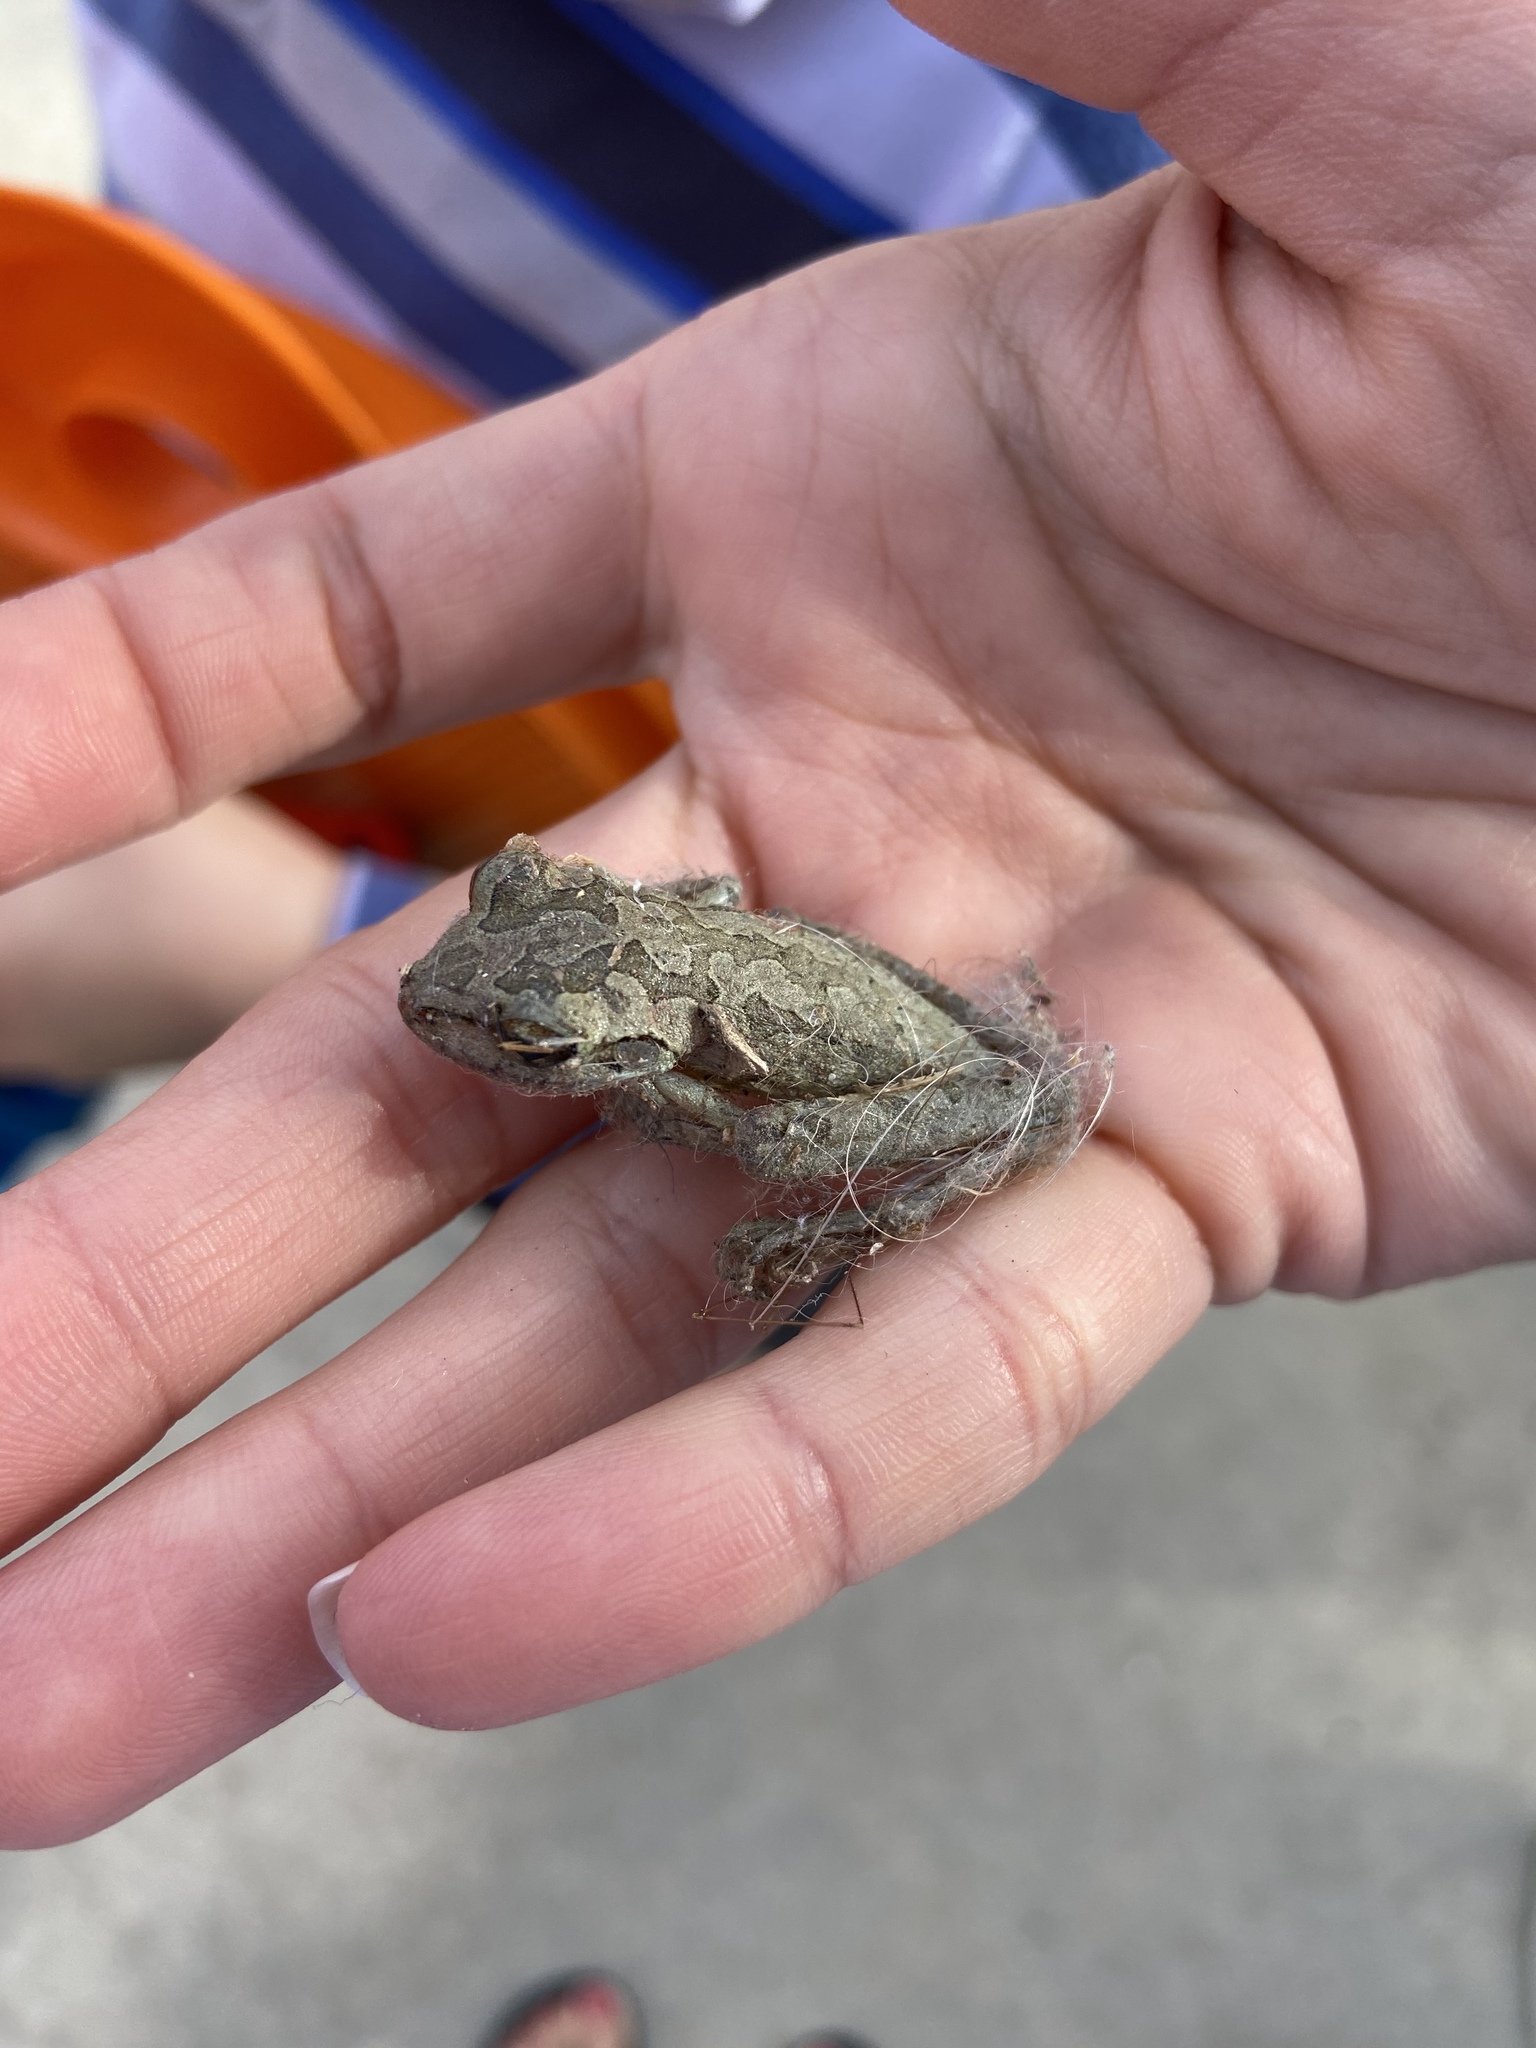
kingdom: Animalia
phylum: Chordata
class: Amphibia
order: Anura
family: Hylidae
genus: Osteopilus
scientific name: Osteopilus septentrionalis
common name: Cuban treefrog
